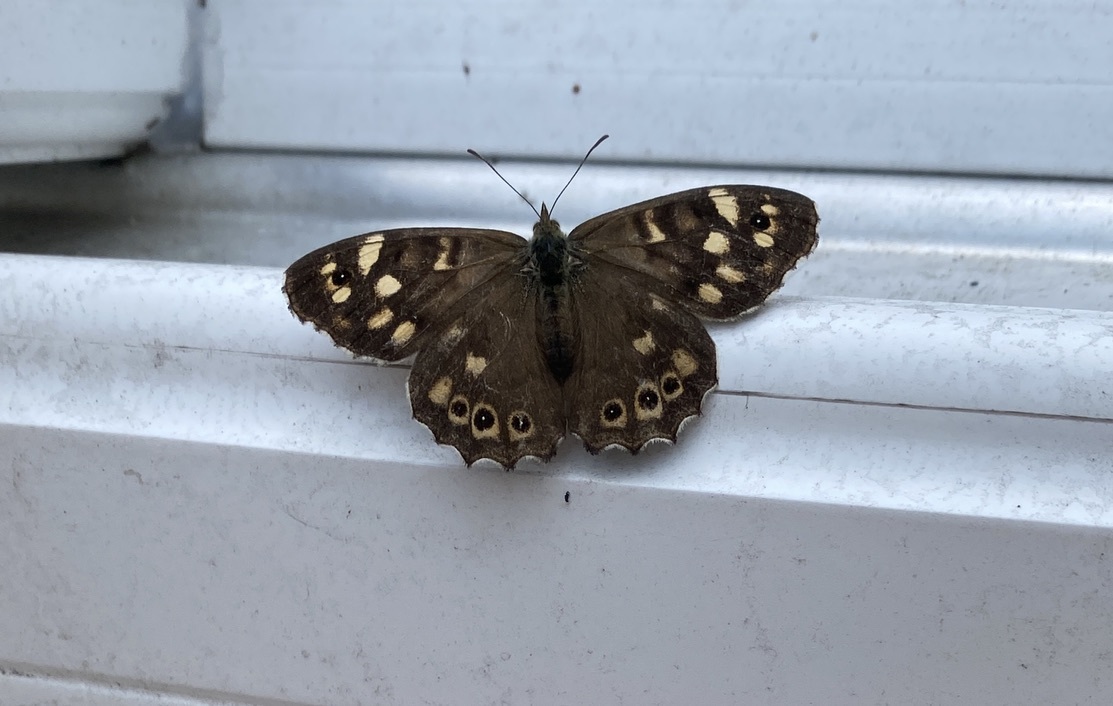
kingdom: Animalia
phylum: Arthropoda
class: Insecta
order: Lepidoptera
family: Nymphalidae
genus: Pararge
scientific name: Pararge aegeria
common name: Speckled wood
